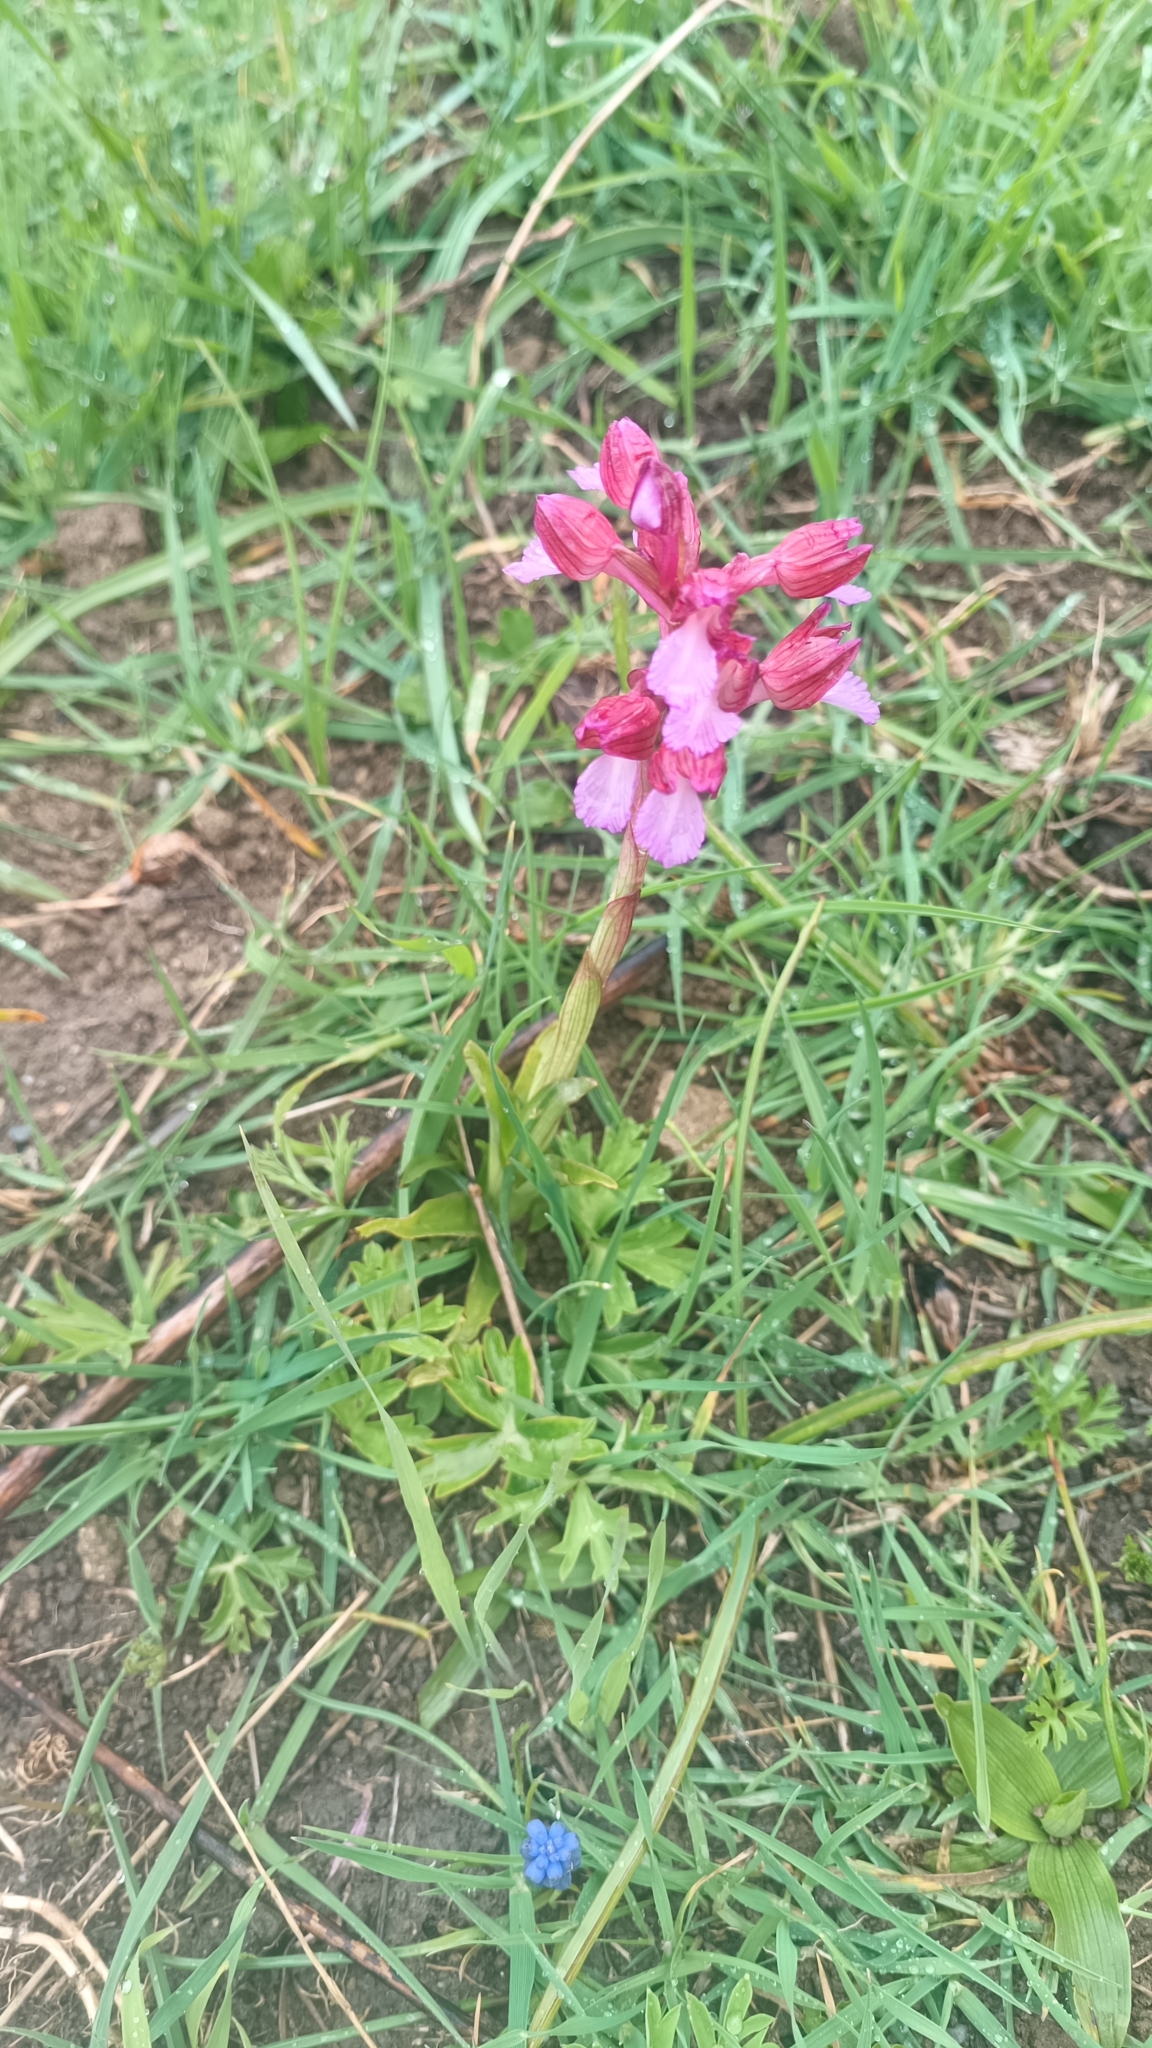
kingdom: Plantae
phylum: Tracheophyta
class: Liliopsida
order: Asparagales
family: Orchidaceae
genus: Anacamptis
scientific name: Anacamptis papilionacea
